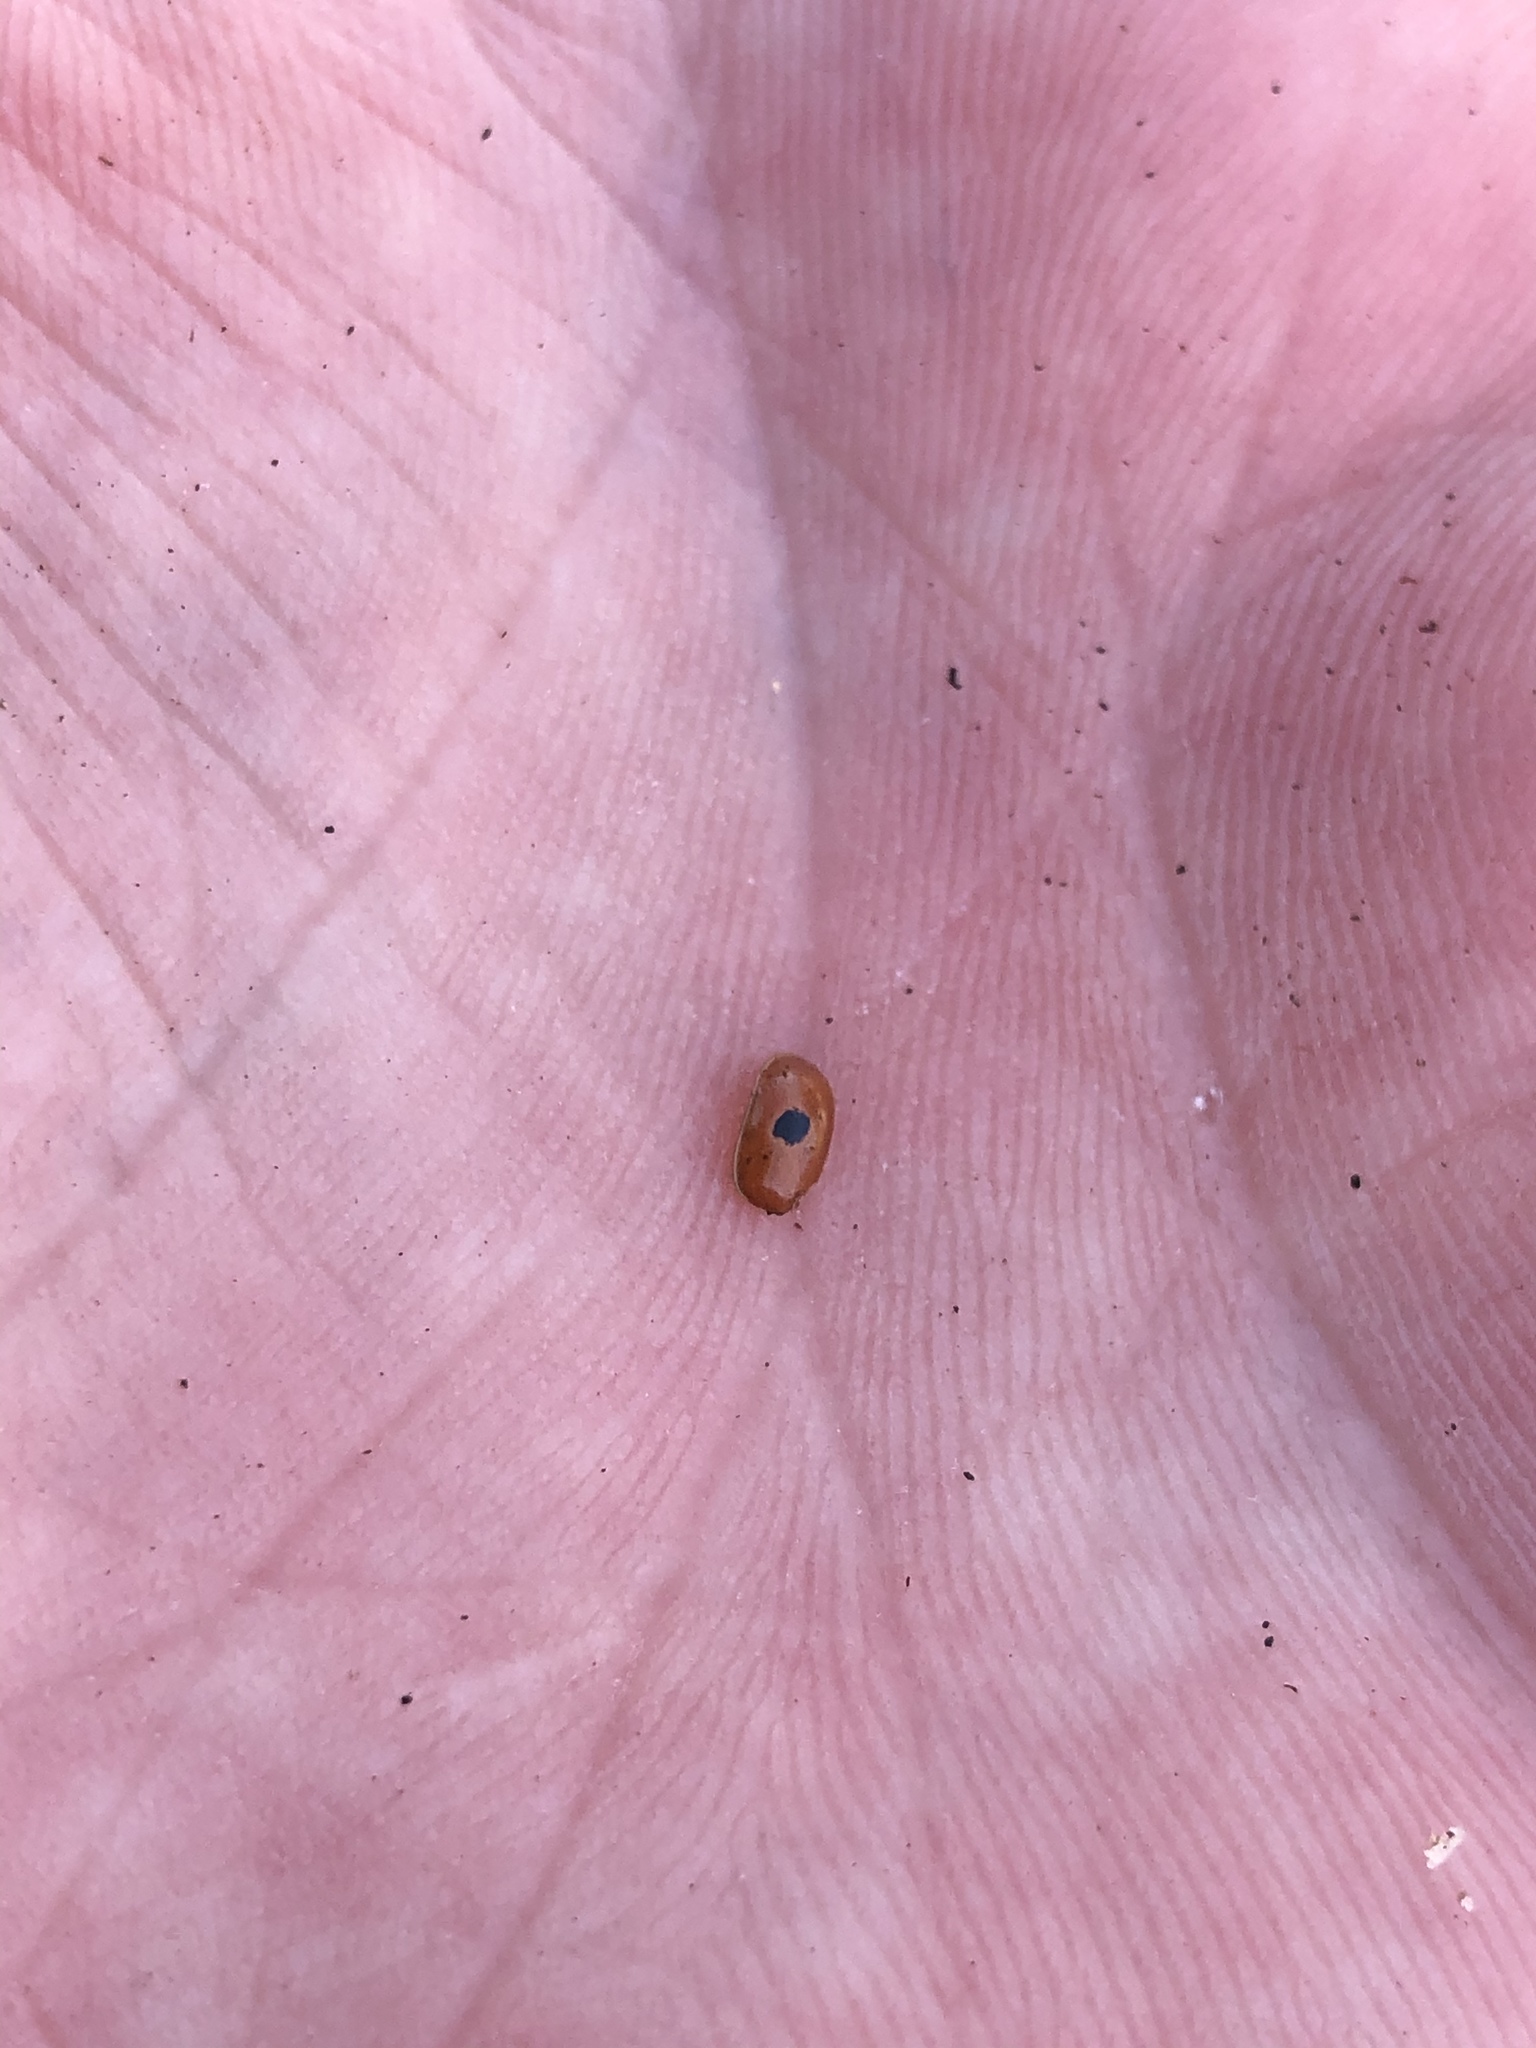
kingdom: Animalia
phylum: Arthropoda
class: Insecta
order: Coleoptera
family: Coccinellidae
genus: Adalia
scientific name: Adalia bipunctata
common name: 2-spot ladybird
